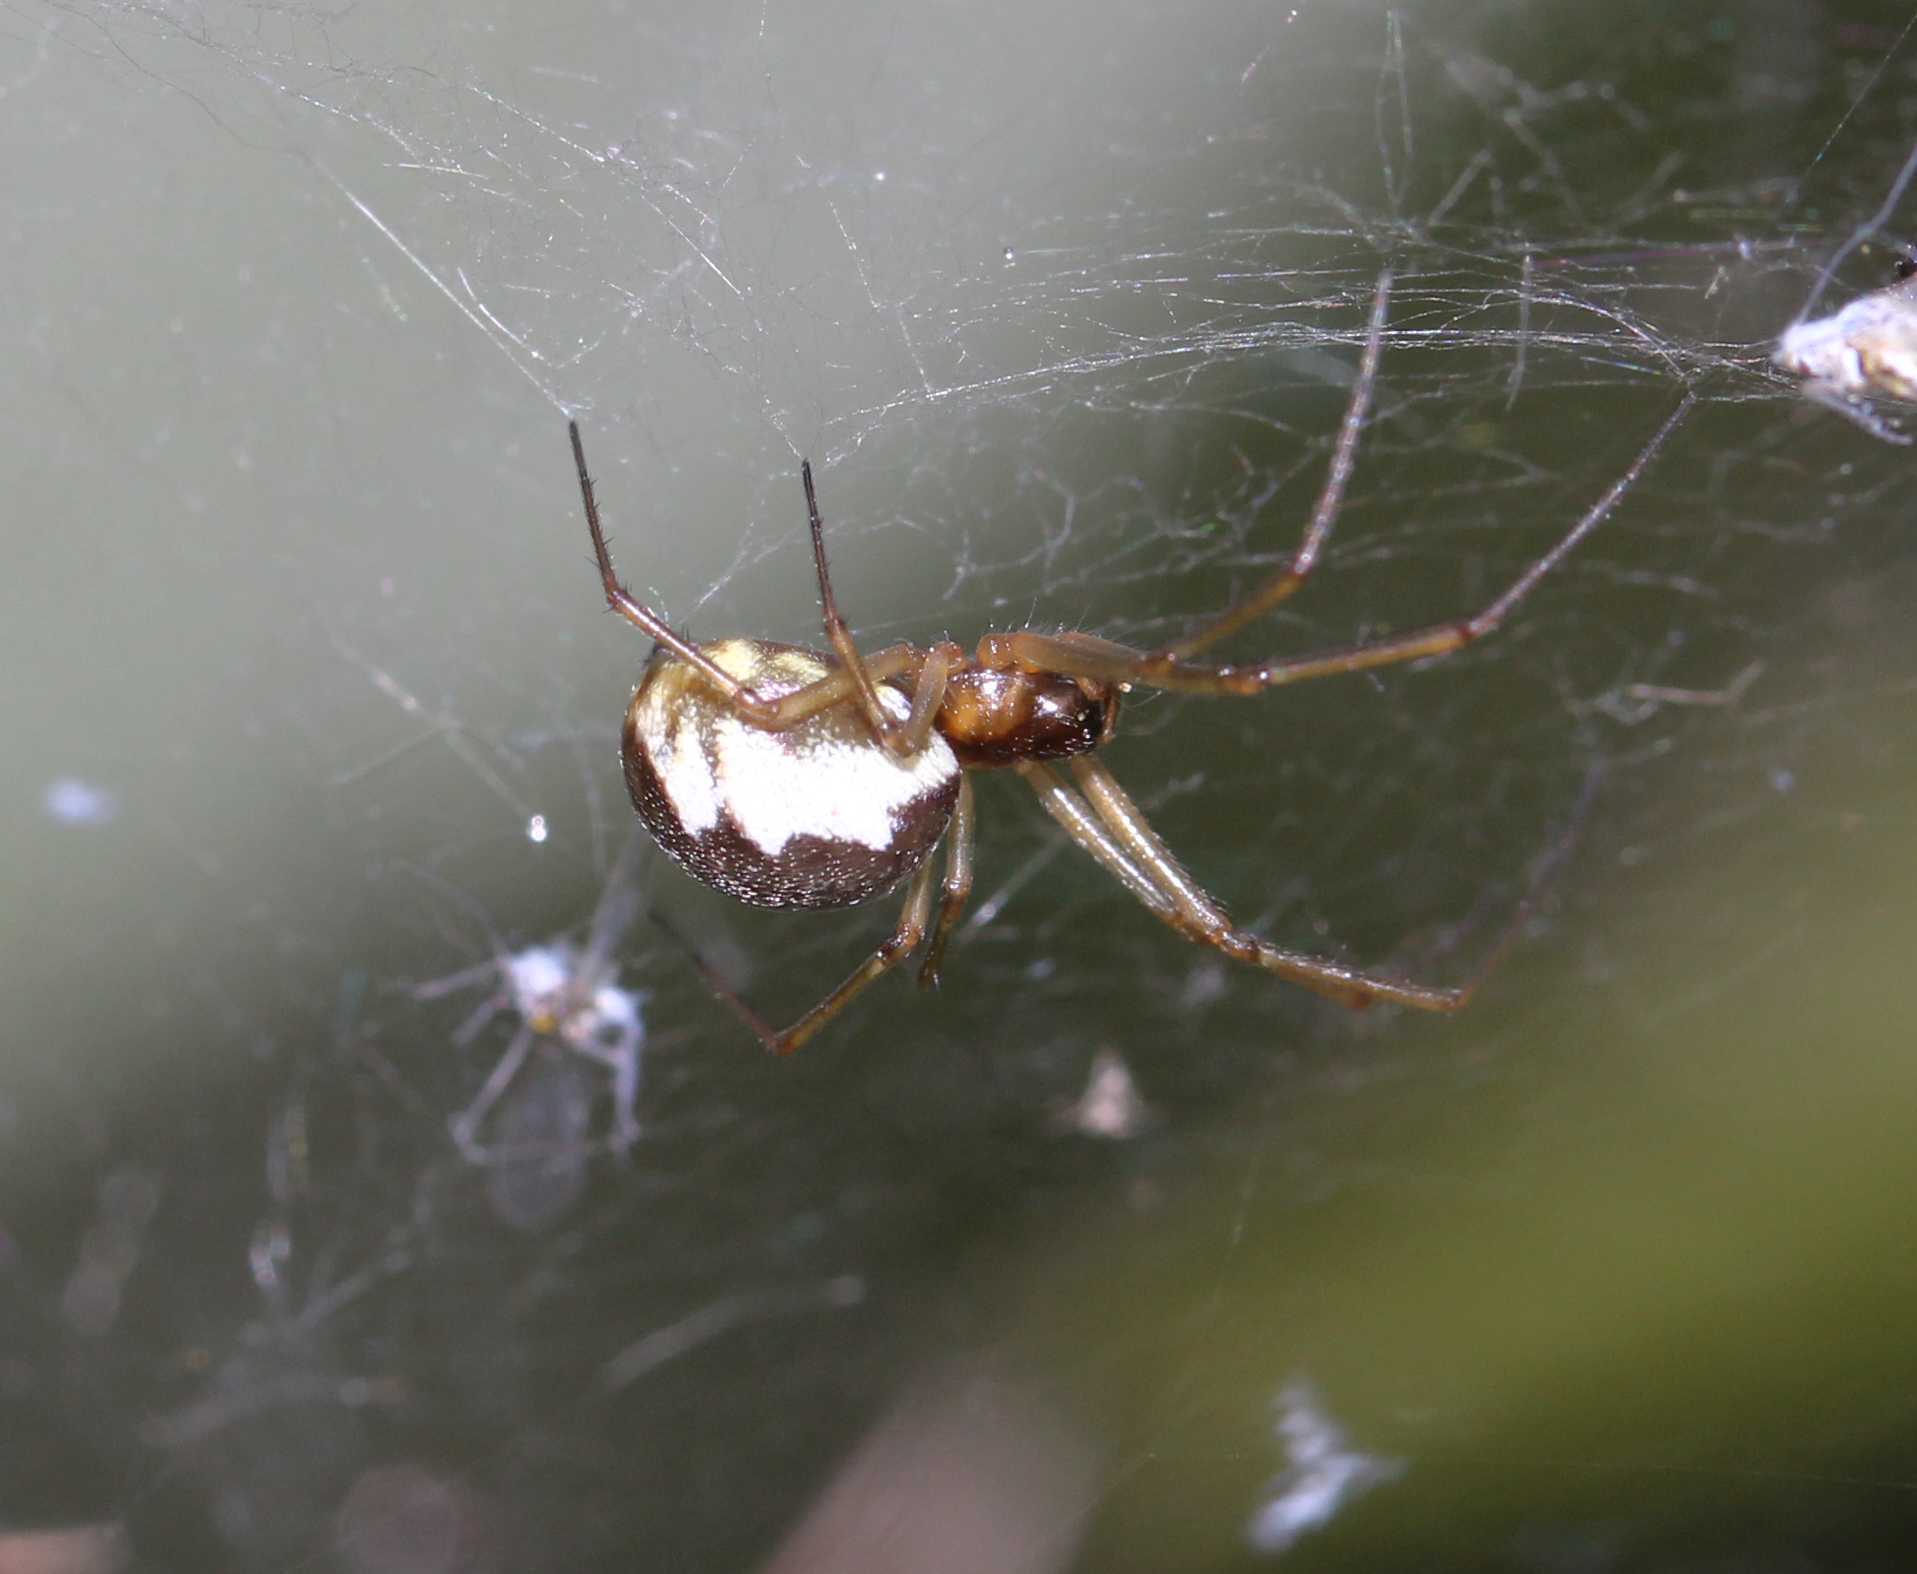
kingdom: Animalia
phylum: Arthropoda
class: Arachnida
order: Araneae
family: Linyphiidae
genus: Neriene
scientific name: Neriene peltata
